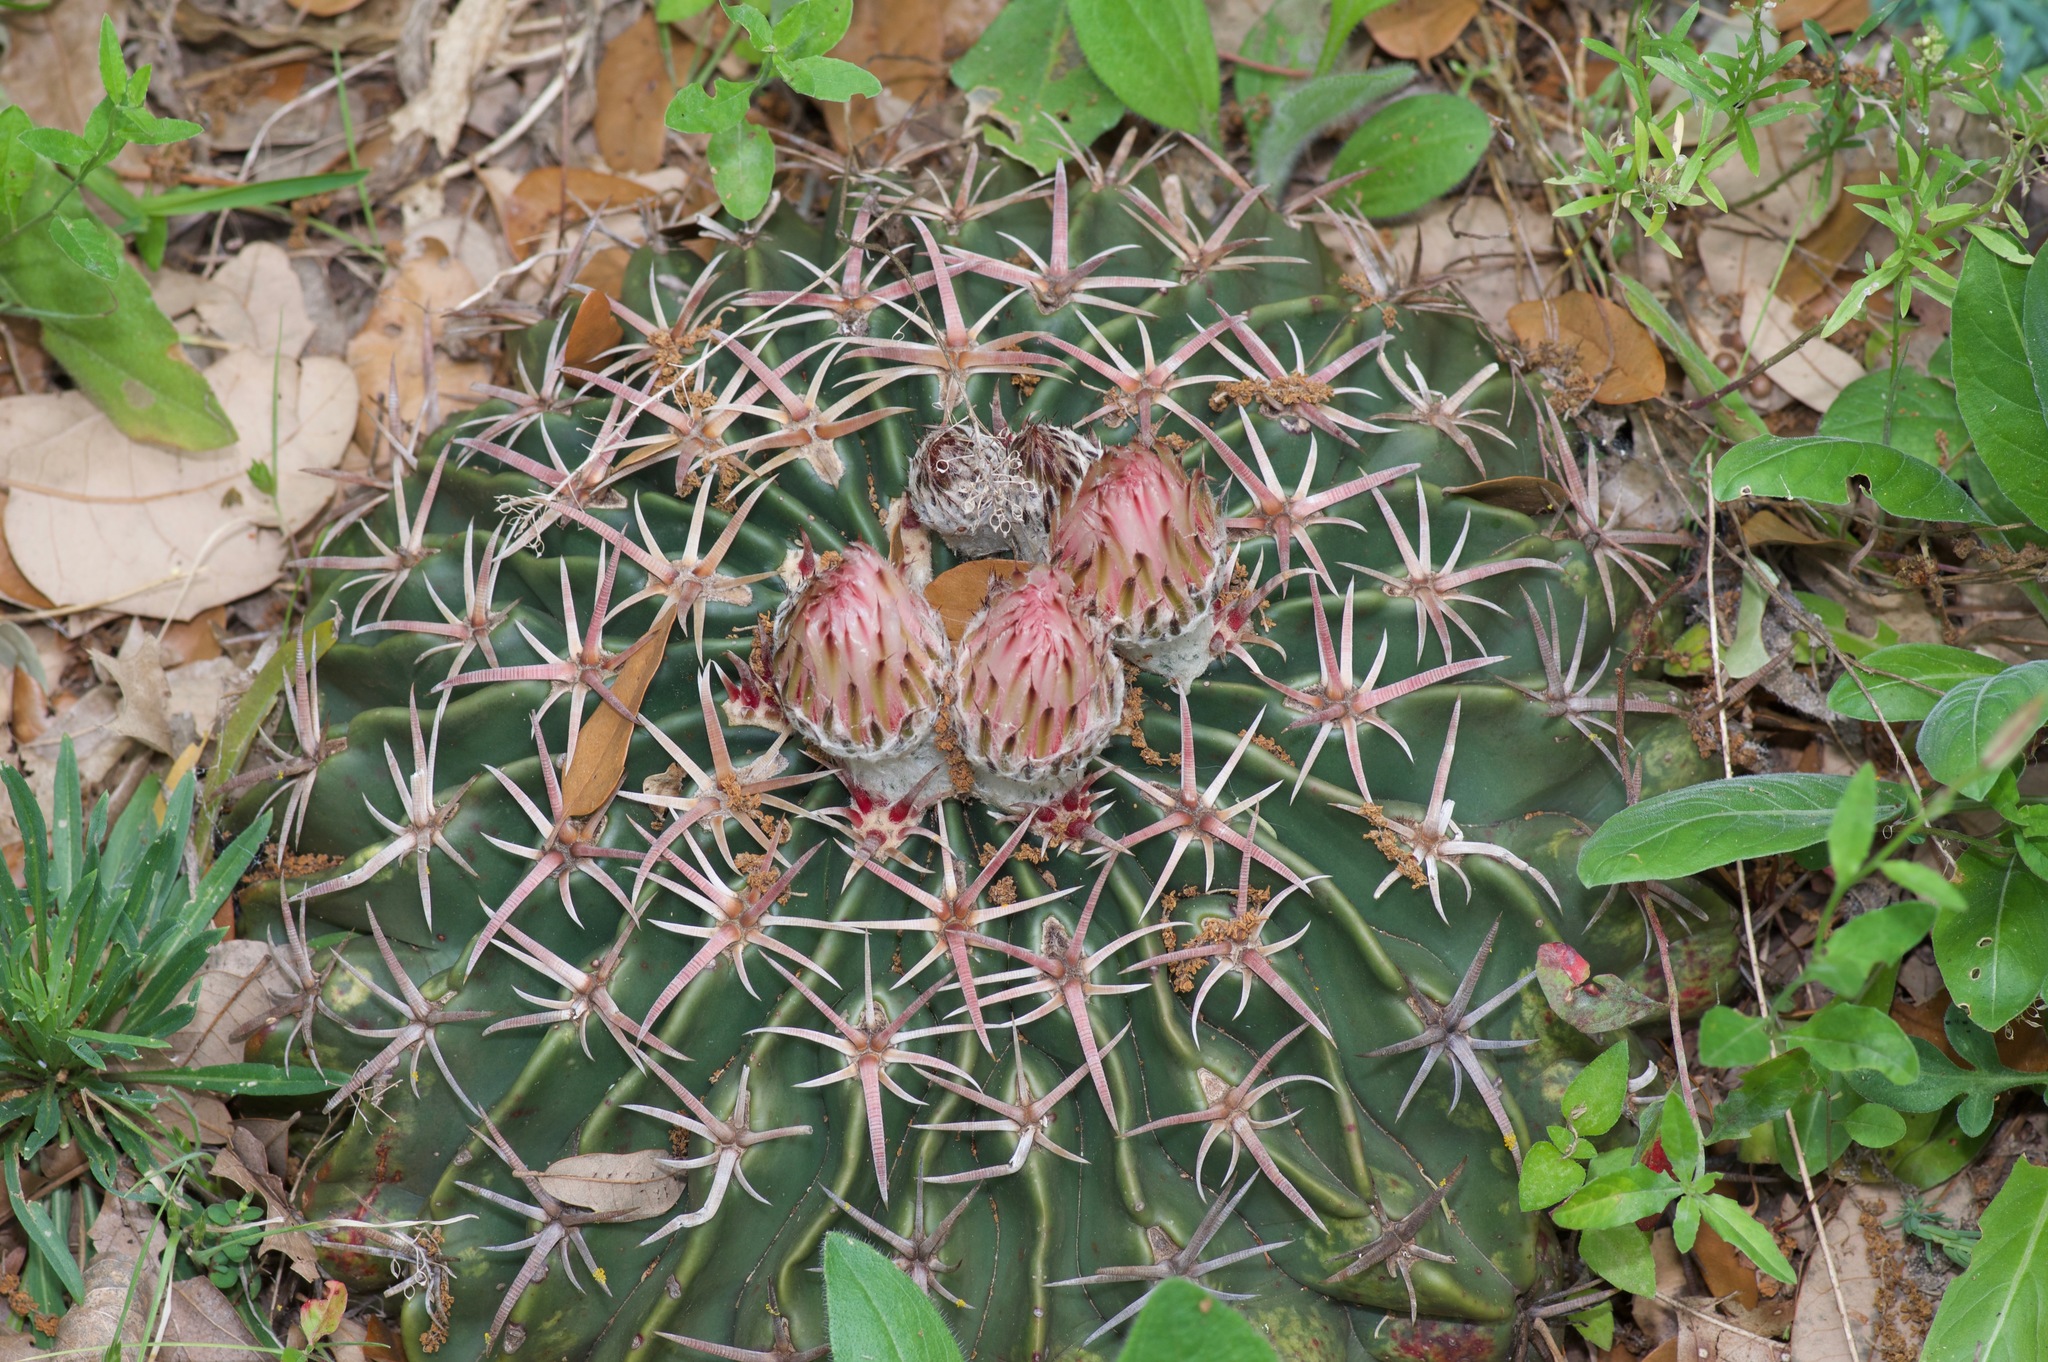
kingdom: Plantae
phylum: Tracheophyta
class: Magnoliopsida
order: Caryophyllales
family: Cactaceae
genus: Echinocactus
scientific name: Echinocactus texensis
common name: Devil's pincushion
